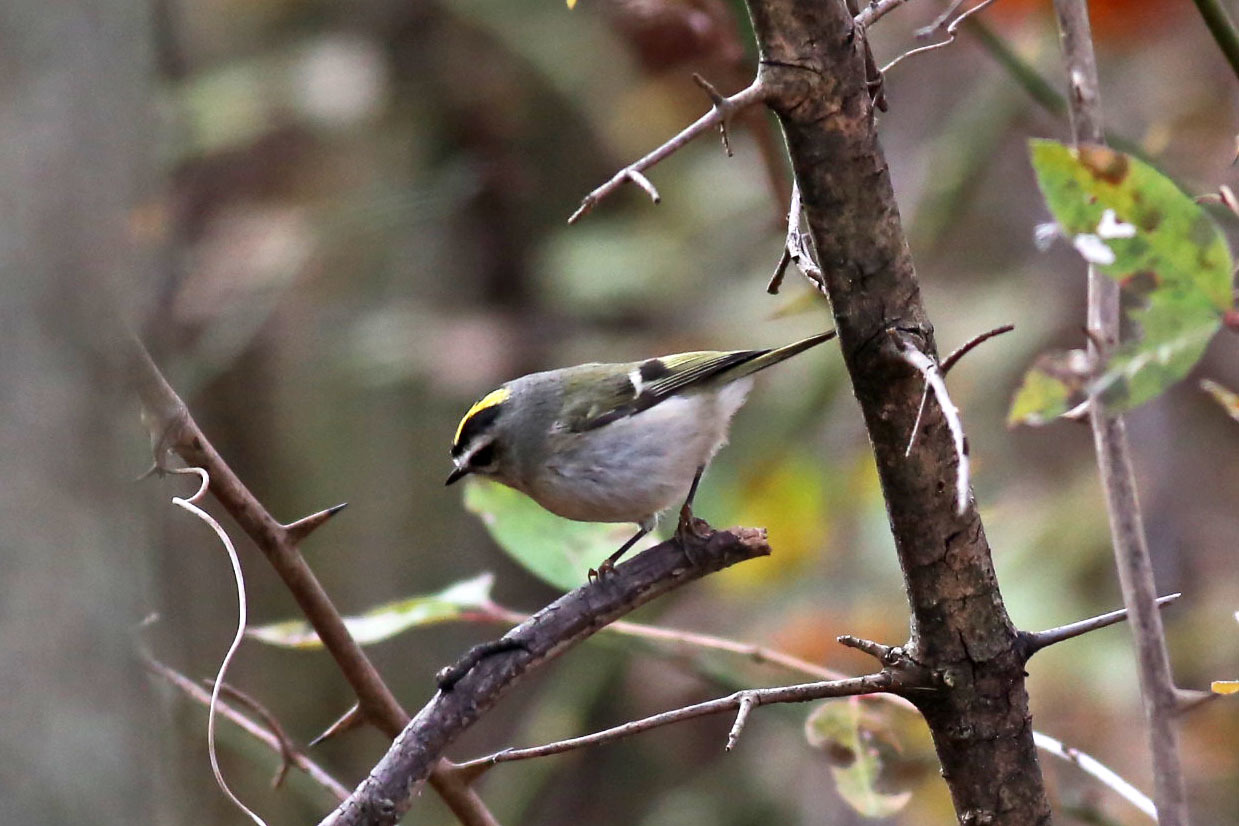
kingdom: Animalia
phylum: Chordata
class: Aves
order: Passeriformes
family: Regulidae
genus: Regulus
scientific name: Regulus satrapa
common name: Golden-crowned kinglet
